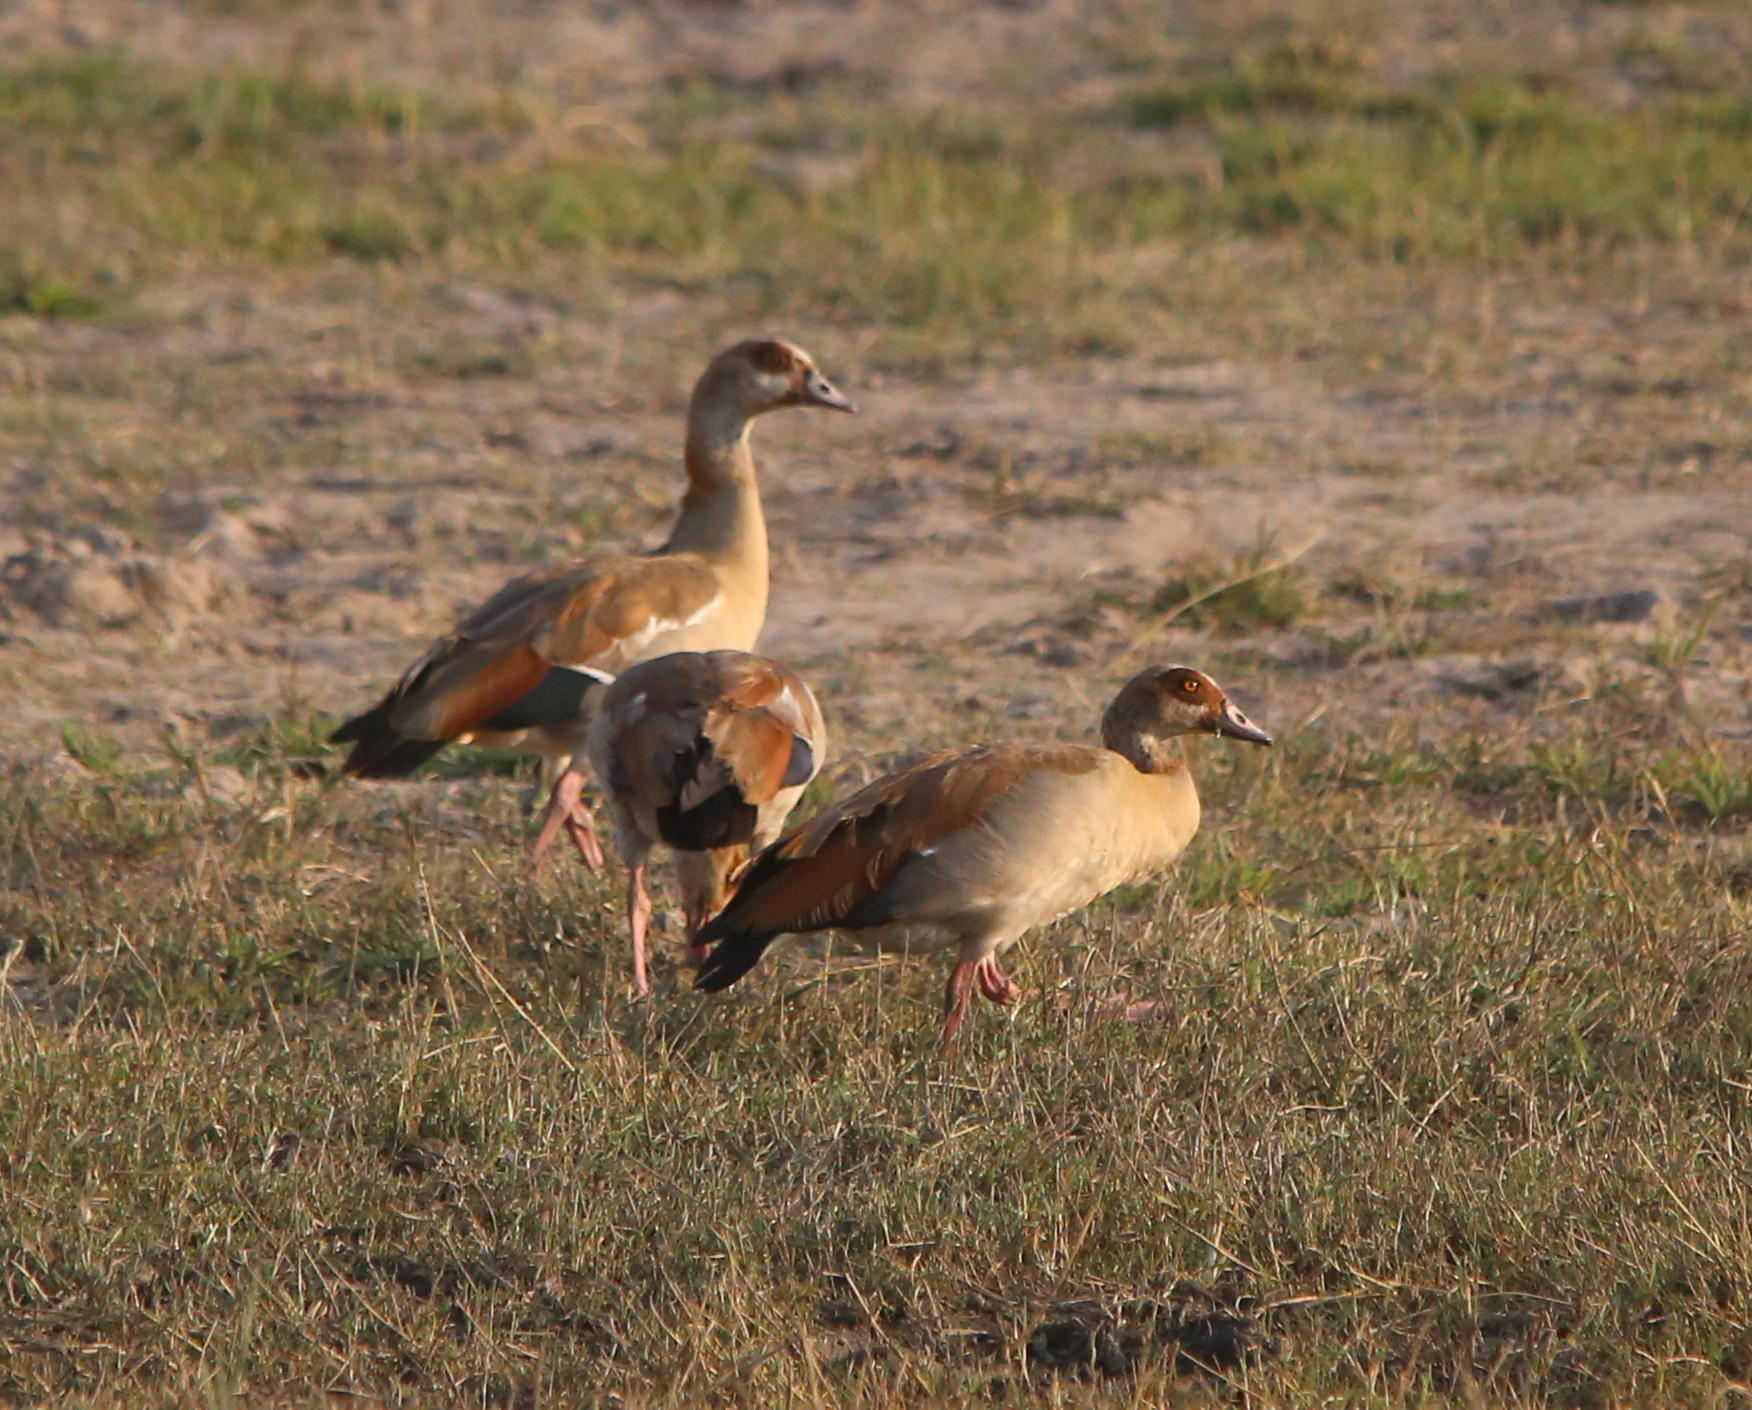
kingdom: Animalia
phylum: Chordata
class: Aves
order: Anseriformes
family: Anatidae
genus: Alopochen
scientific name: Alopochen aegyptiaca
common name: Egyptian goose
